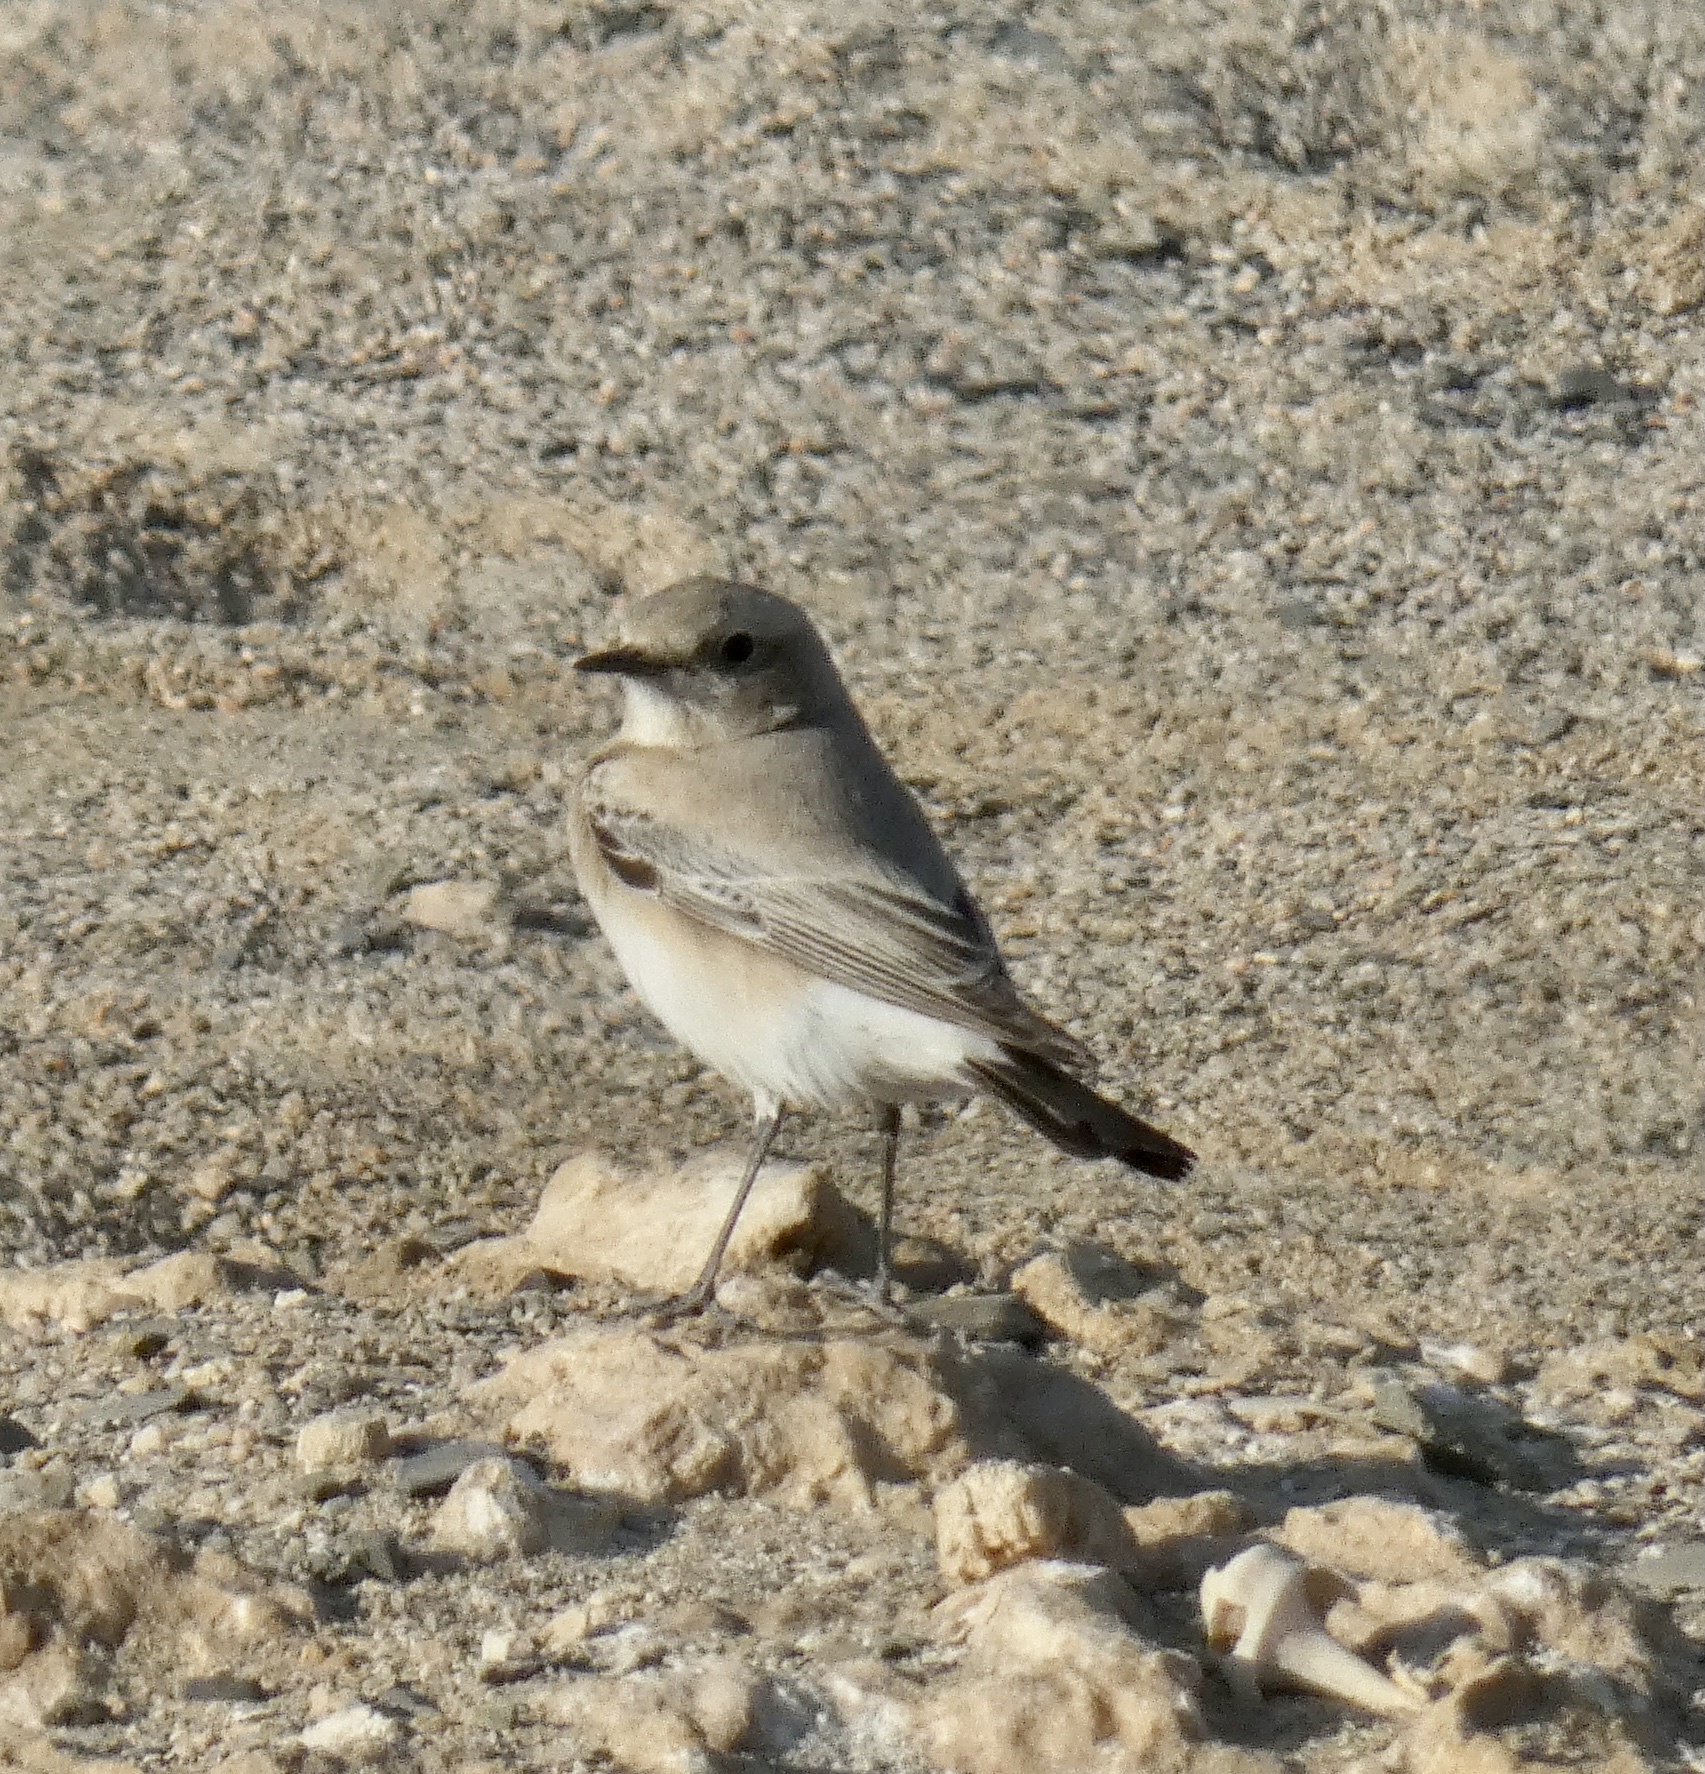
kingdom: Animalia
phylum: Chordata
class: Aves
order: Passeriformes
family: Muscicapidae
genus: Oenanthe
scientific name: Oenanthe isabellina
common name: Isabelline wheatear
